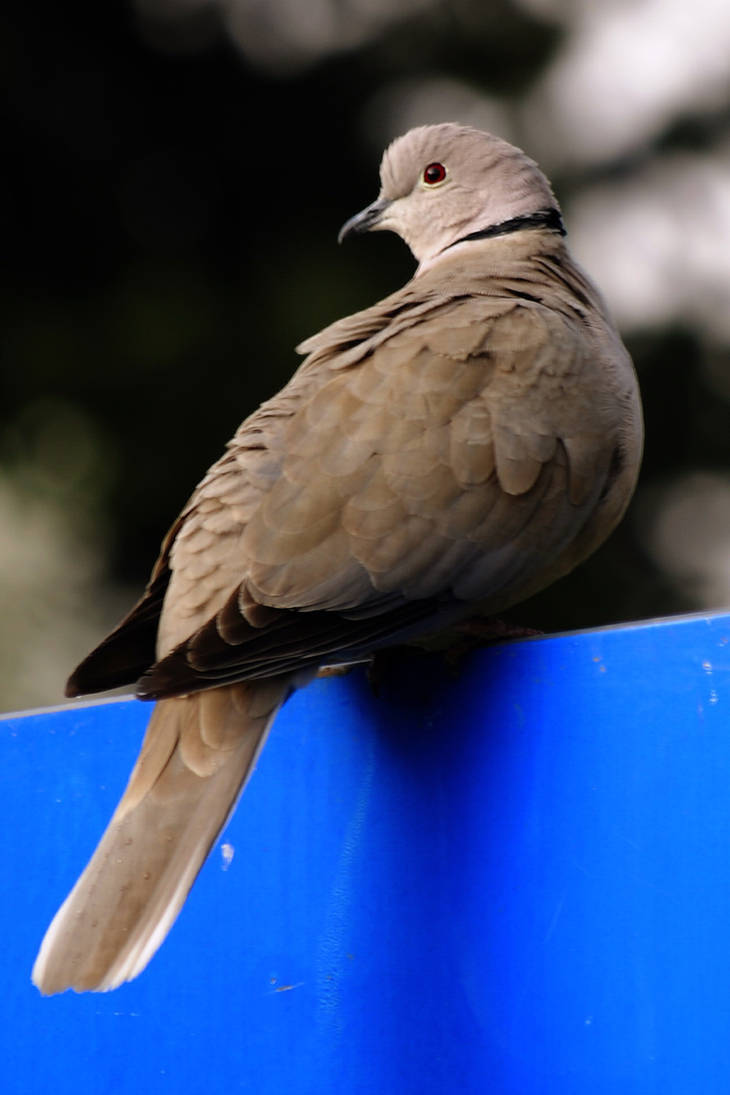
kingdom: Animalia
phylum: Chordata
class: Aves
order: Columbiformes
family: Columbidae
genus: Streptopelia
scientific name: Streptopelia decaocto
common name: Eurasian collared dove
